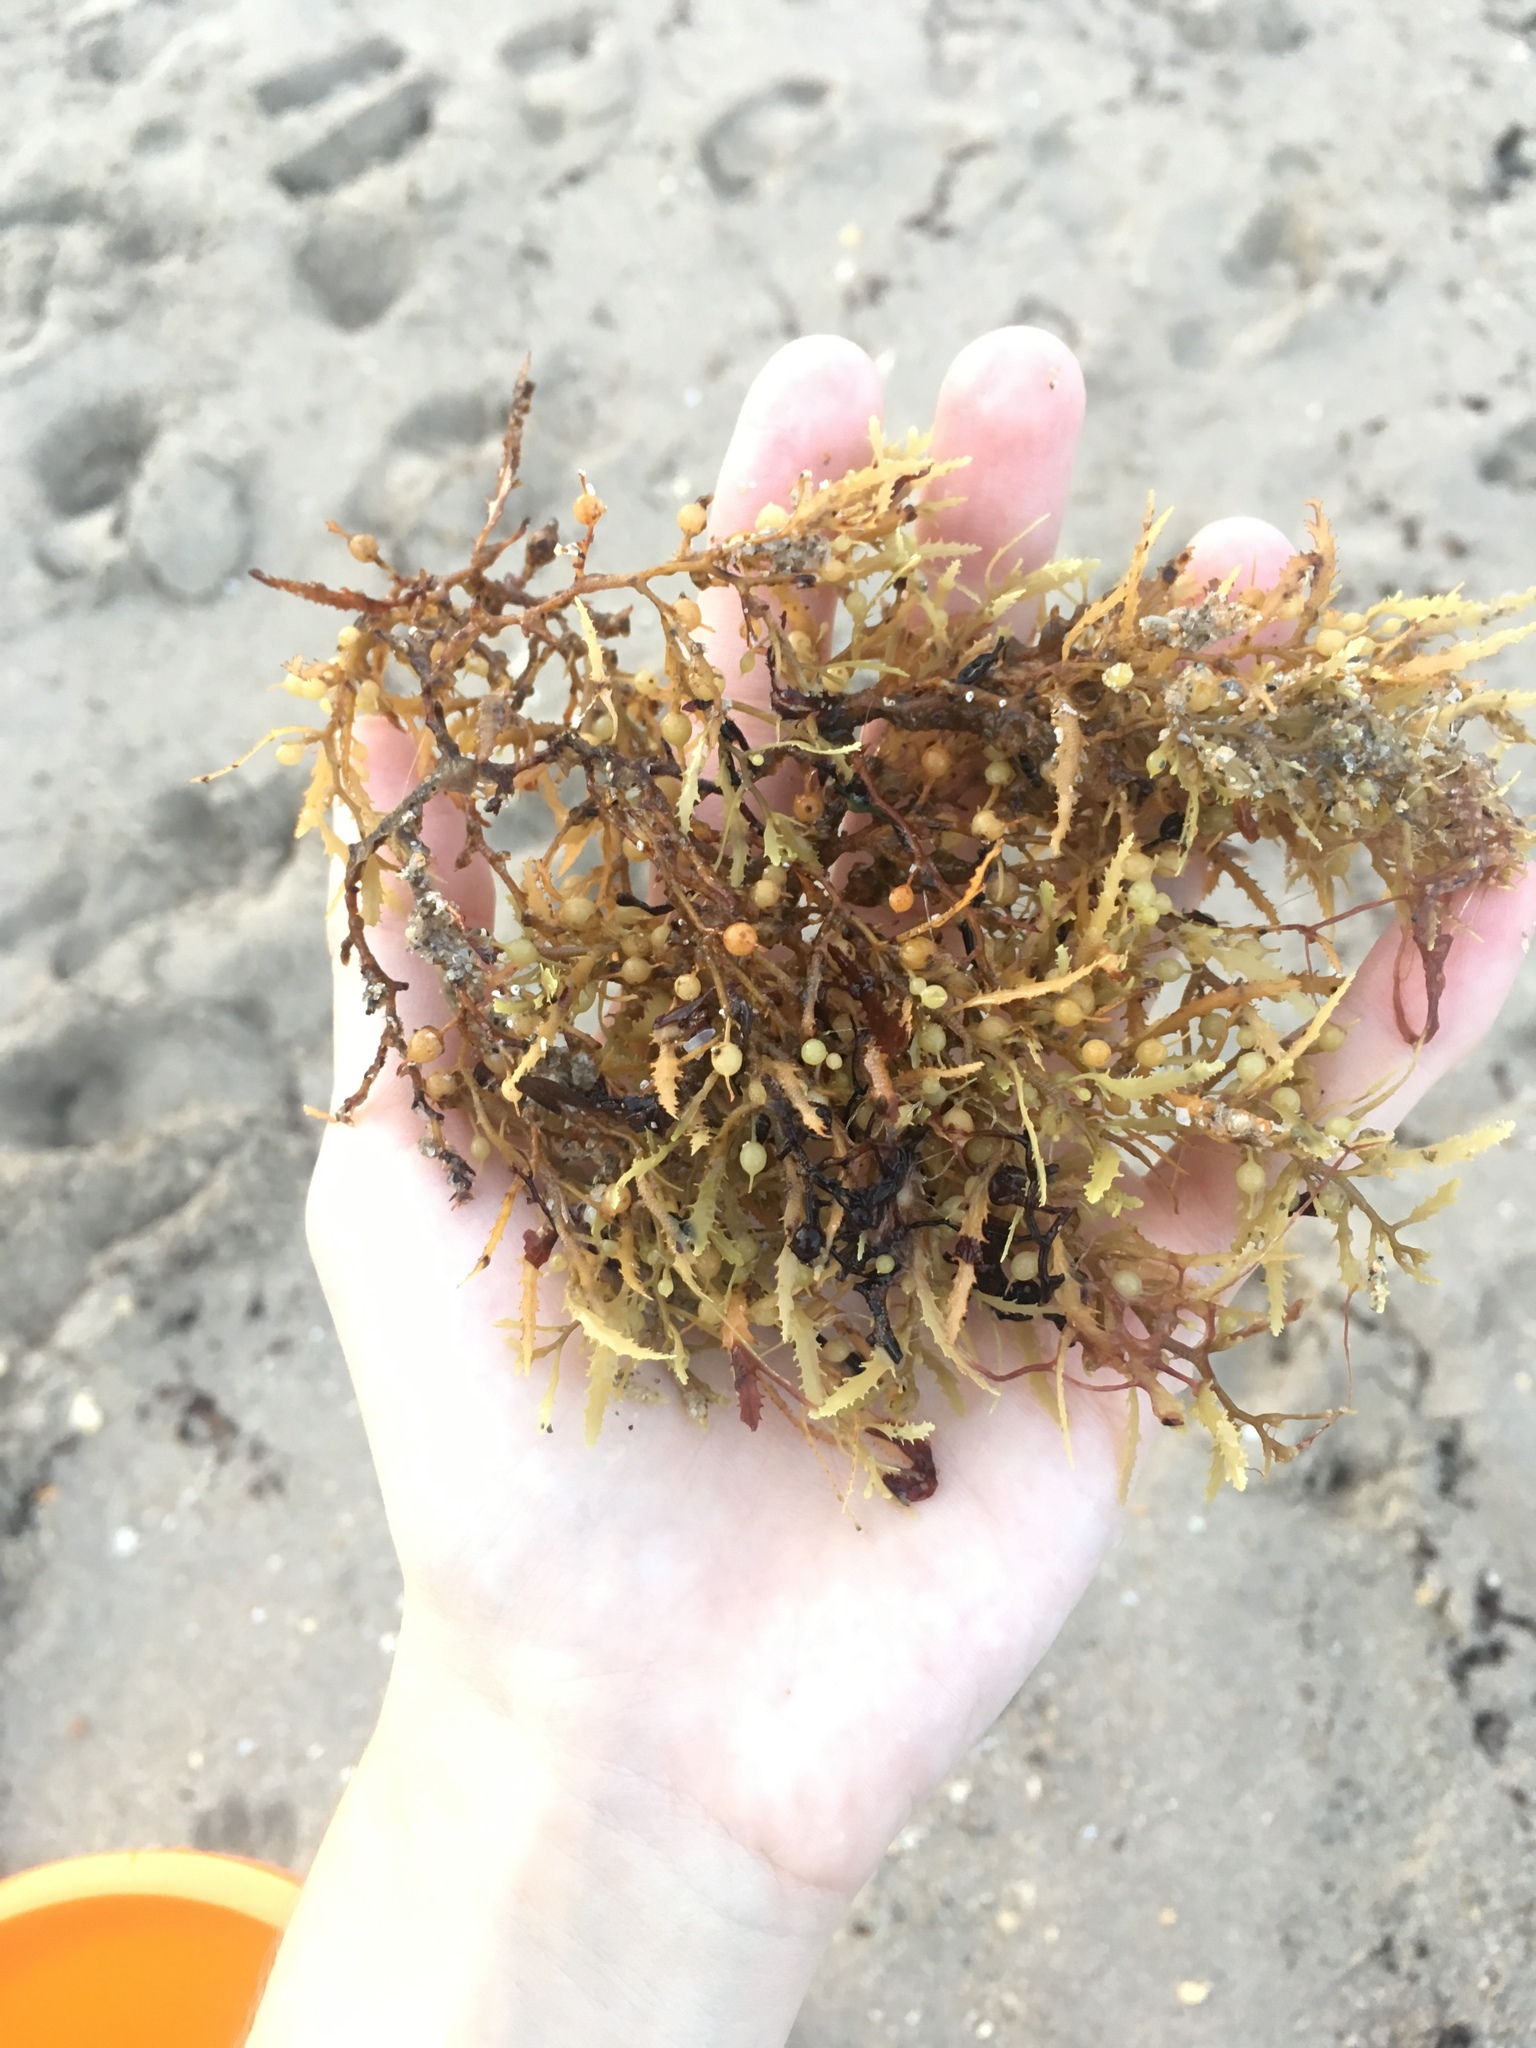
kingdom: Chromista
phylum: Ochrophyta
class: Phaeophyceae
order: Fucales
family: Sargassaceae
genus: Sargassum
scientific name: Sargassum fluitans
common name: Sargassum seaweed
